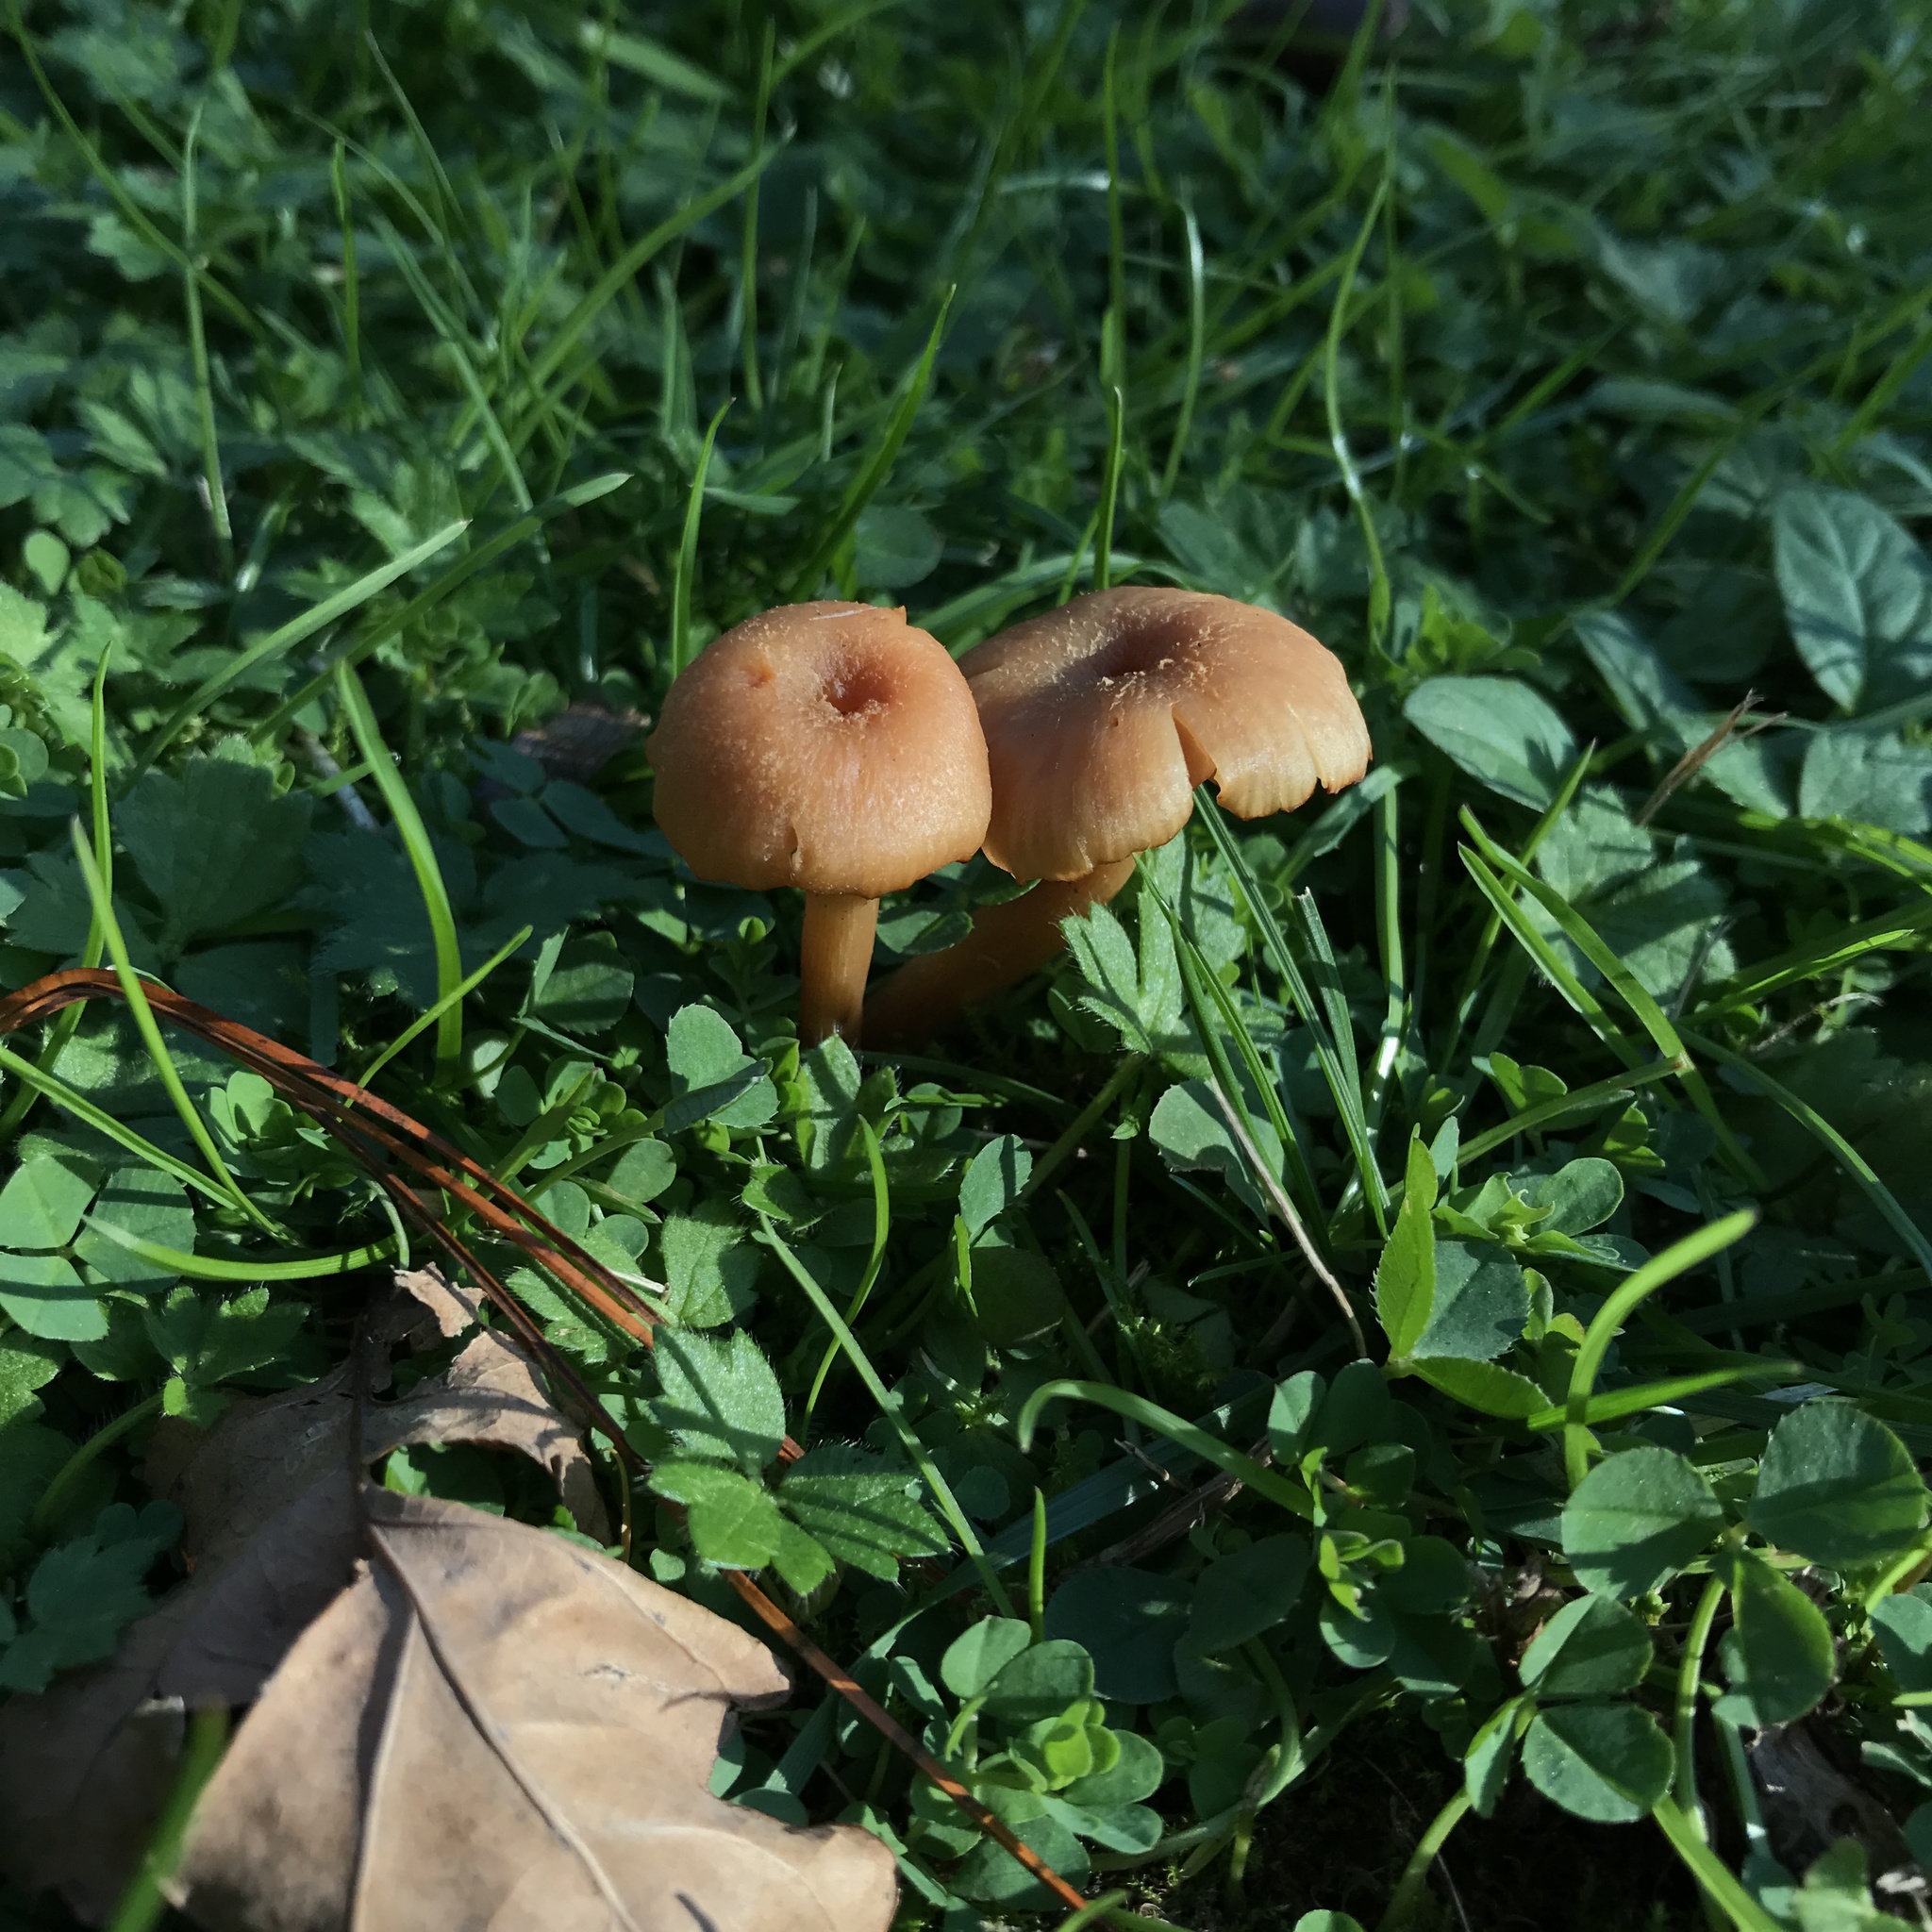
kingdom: Fungi
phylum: Basidiomycota
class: Agaricomycetes
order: Agaricales
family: Hydnangiaceae
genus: Laccaria
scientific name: Laccaria laccata
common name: Deceiver
